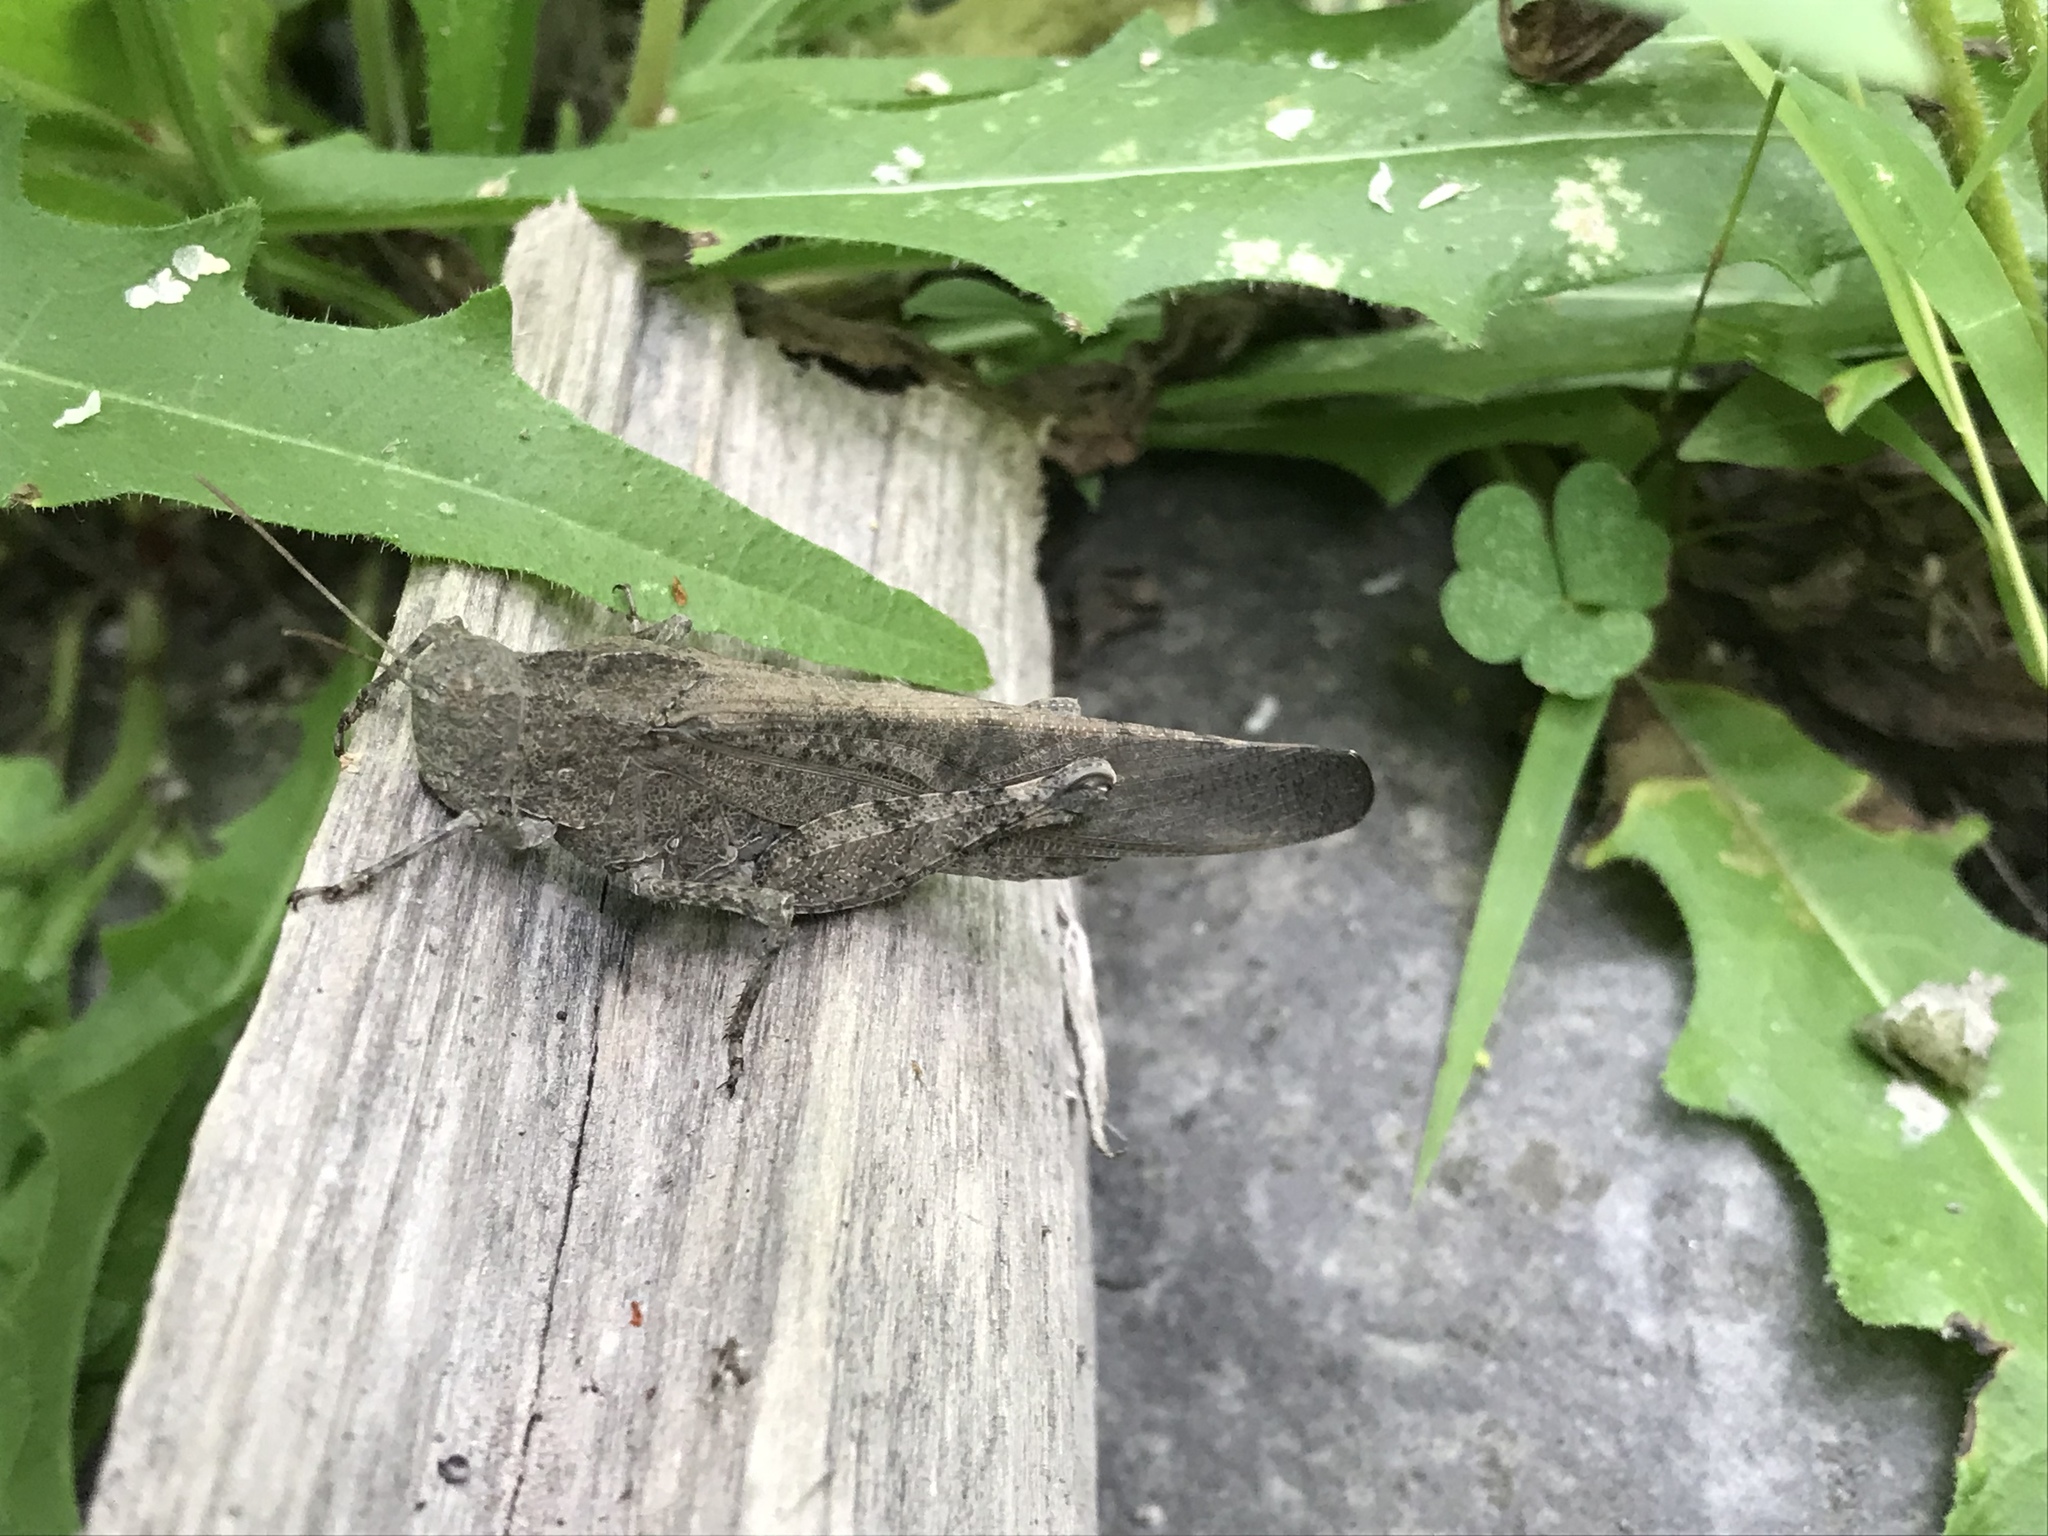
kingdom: Animalia
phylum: Arthropoda
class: Insecta
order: Orthoptera
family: Acrididae
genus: Dissosteira
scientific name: Dissosteira carolina
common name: Carolina grasshopper
